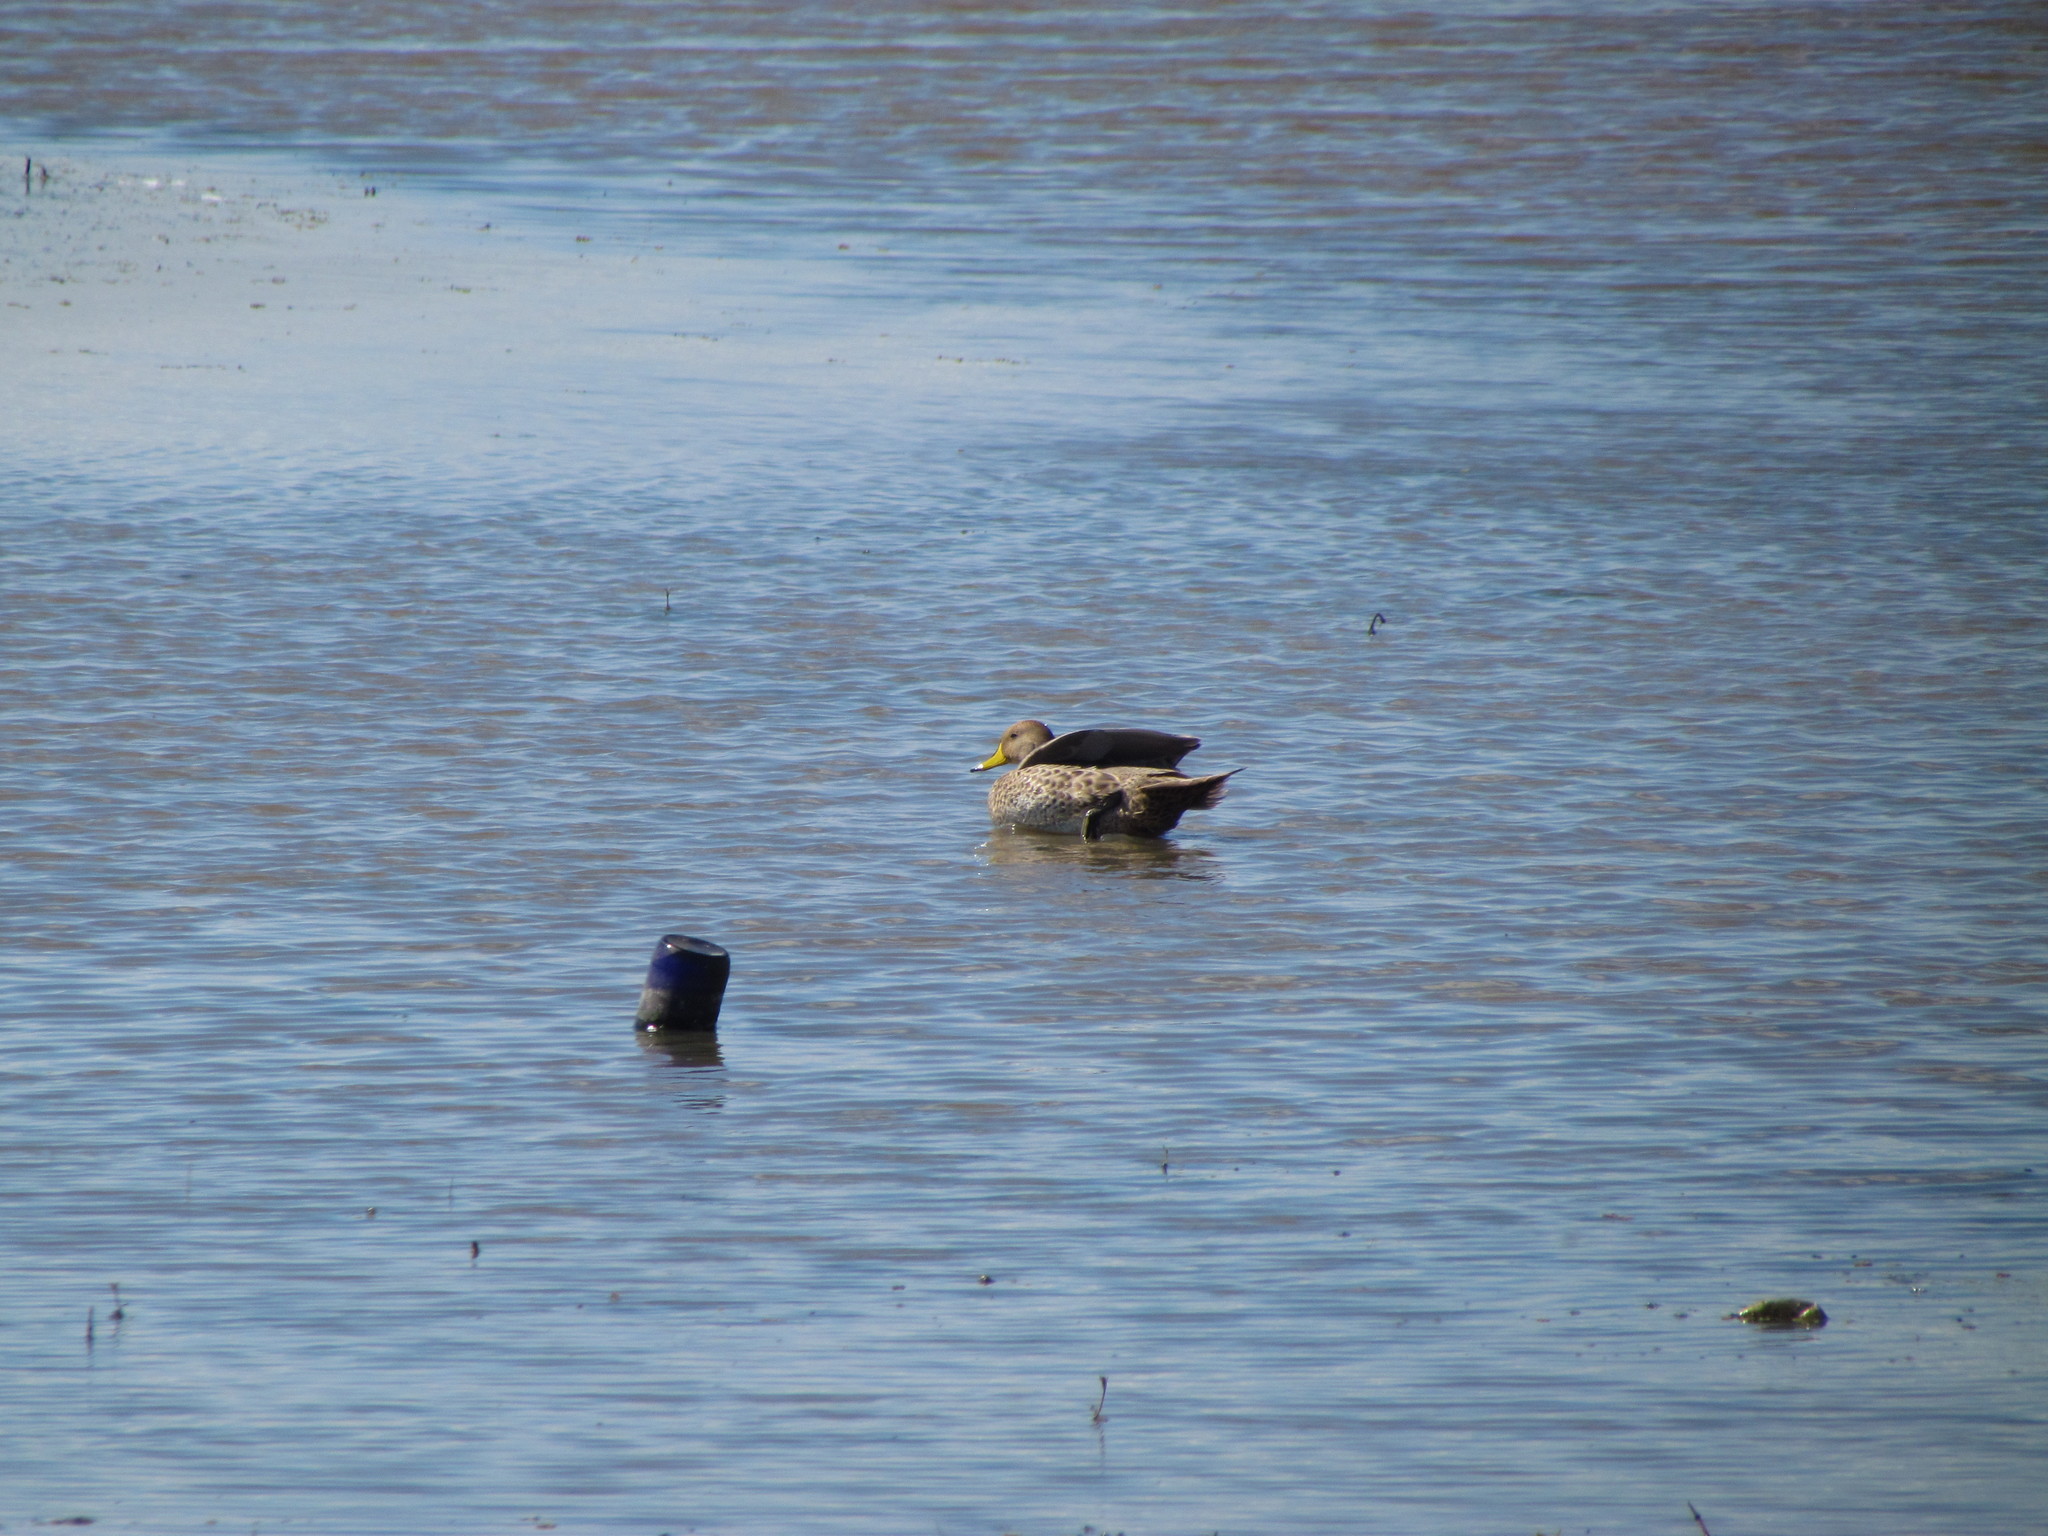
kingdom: Animalia
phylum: Chordata
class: Aves
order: Anseriformes
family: Anatidae
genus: Anas
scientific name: Anas georgica
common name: Yellow-billed pintail
